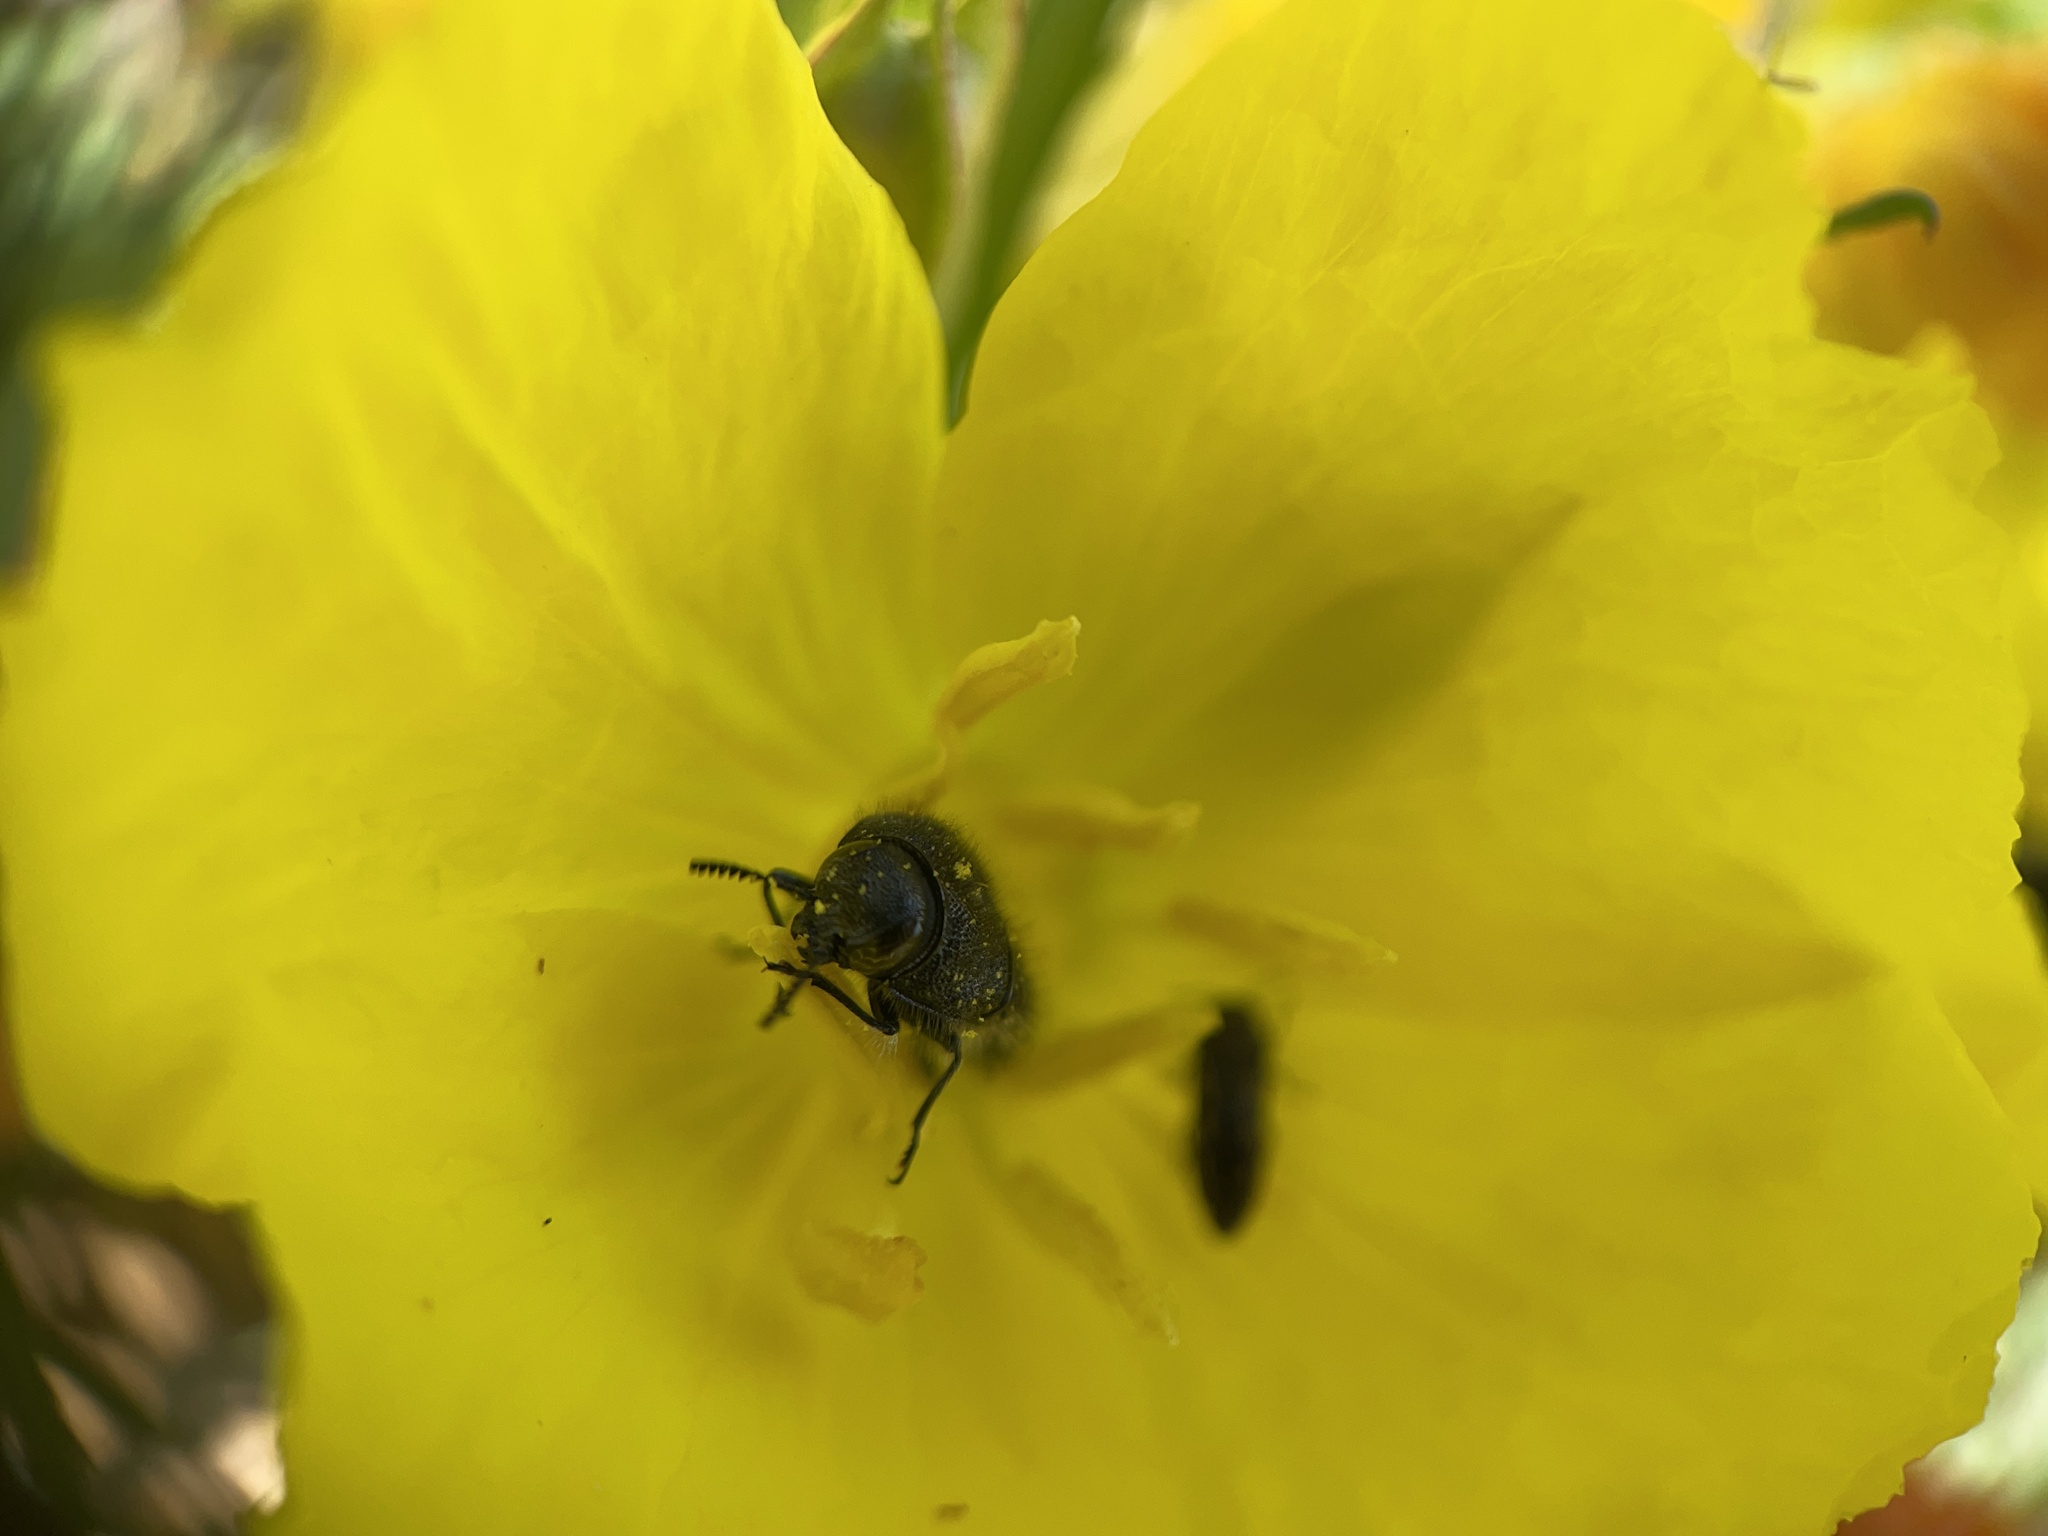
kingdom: Animalia
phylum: Arthropoda
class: Insecta
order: Coleoptera
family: Buprestidae
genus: Acmaeodera
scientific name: Acmaeodera ornatoides
